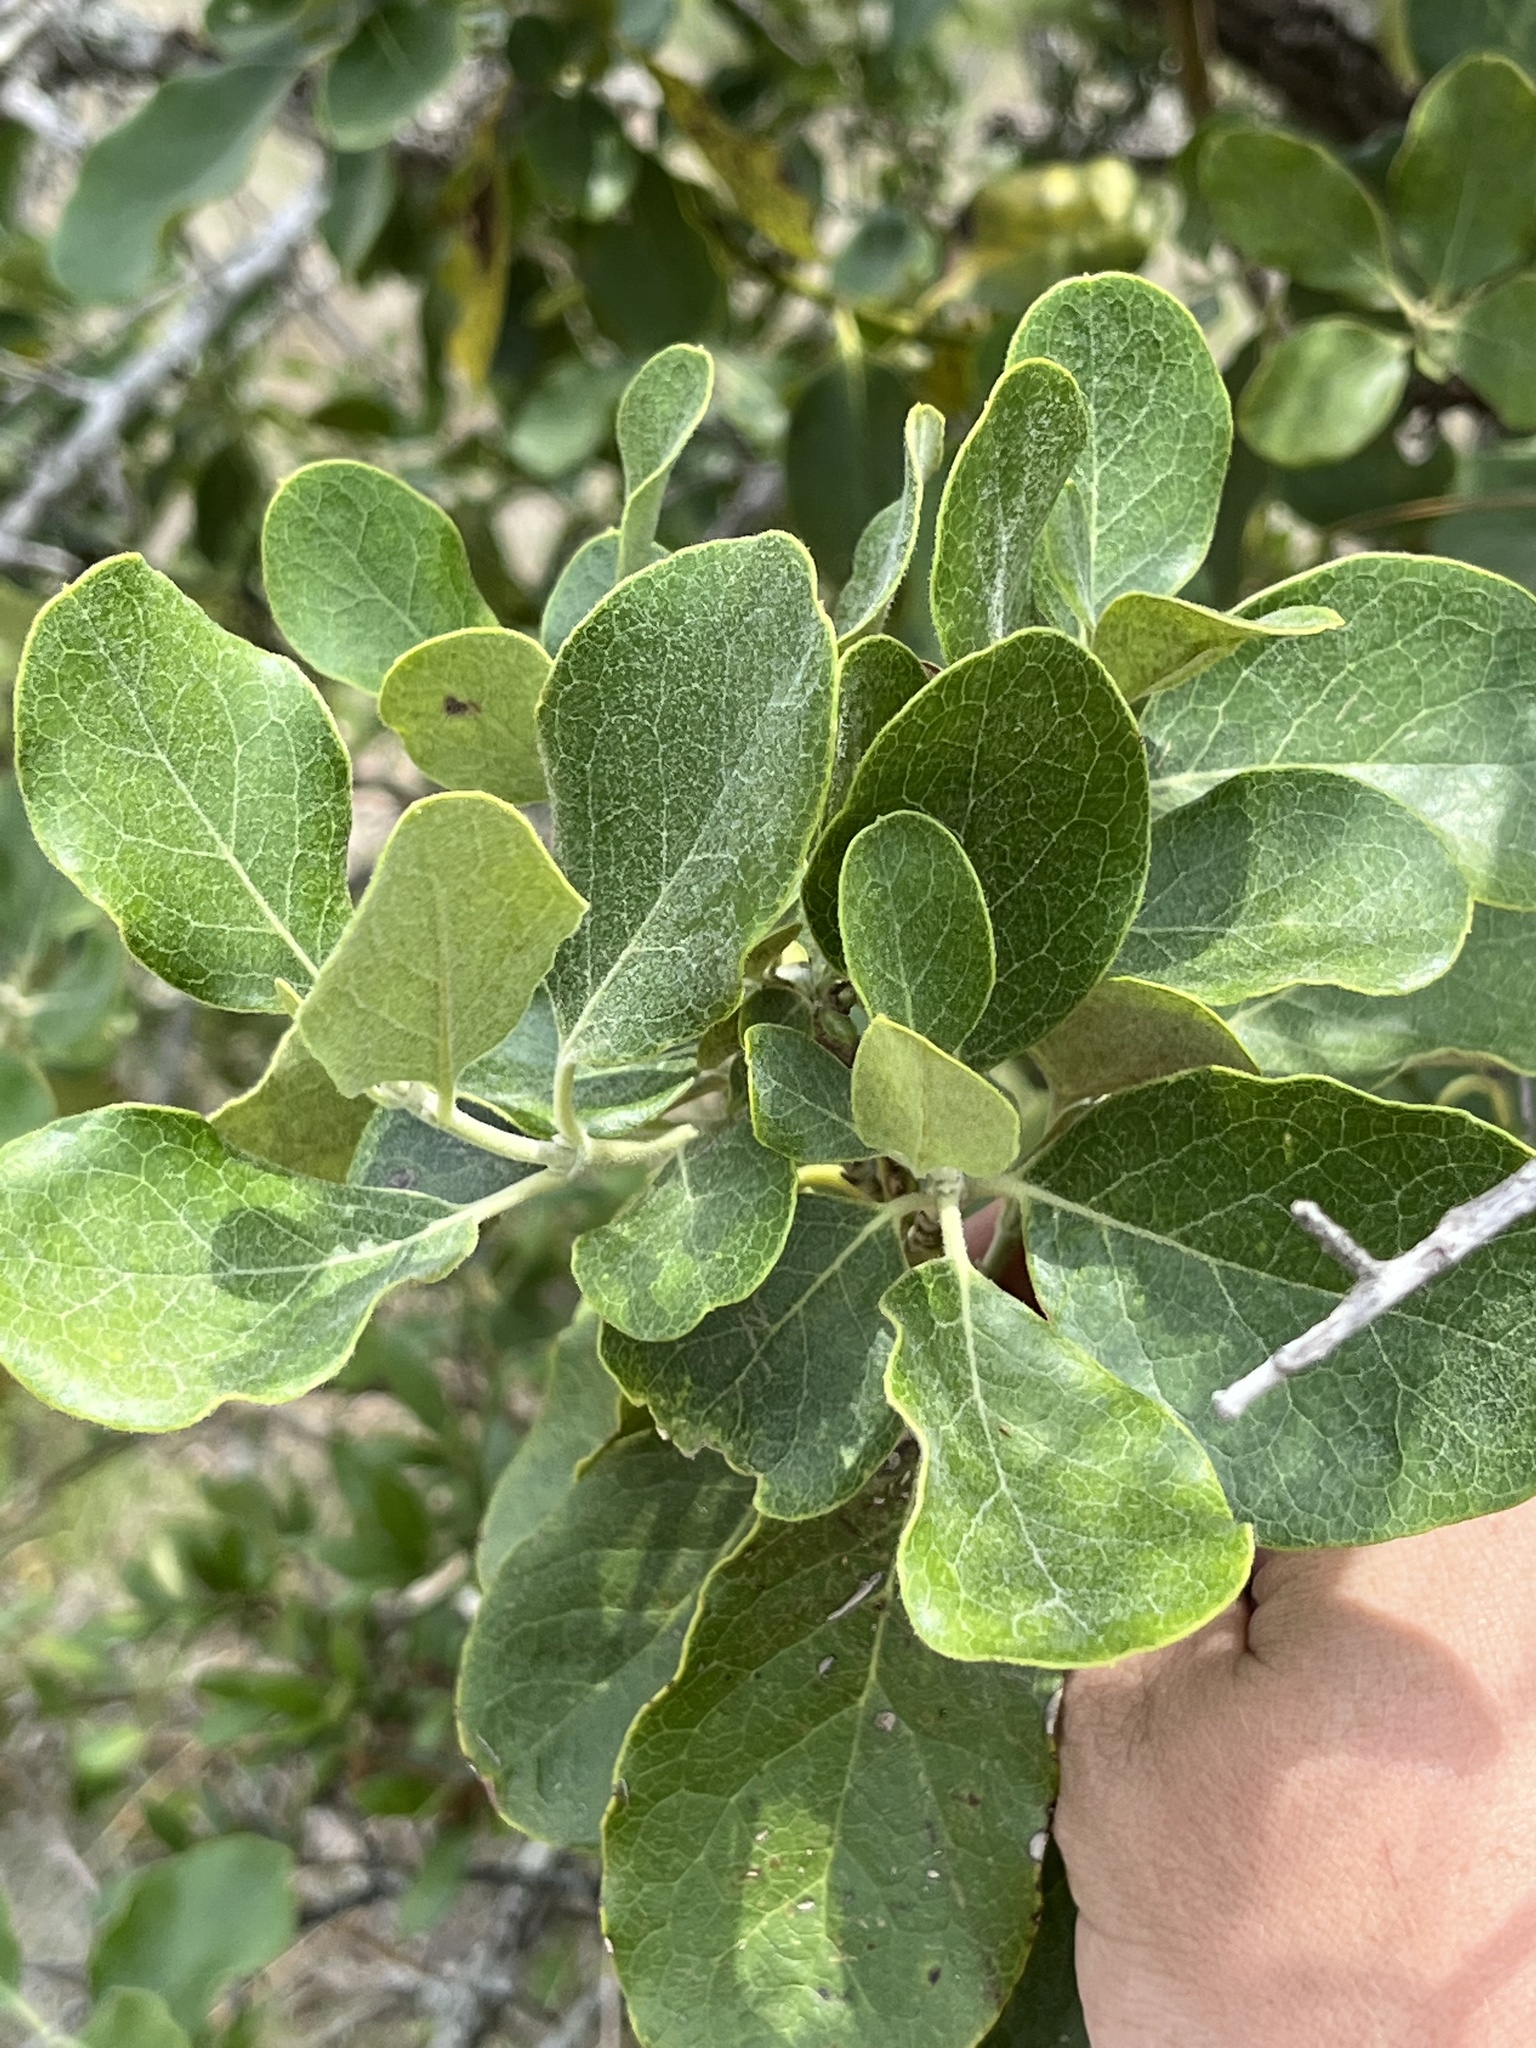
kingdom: Plantae
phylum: Tracheophyta
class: Magnoliopsida
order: Garryales
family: Garryaceae
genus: Garrya
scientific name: Garrya lindheimeri
